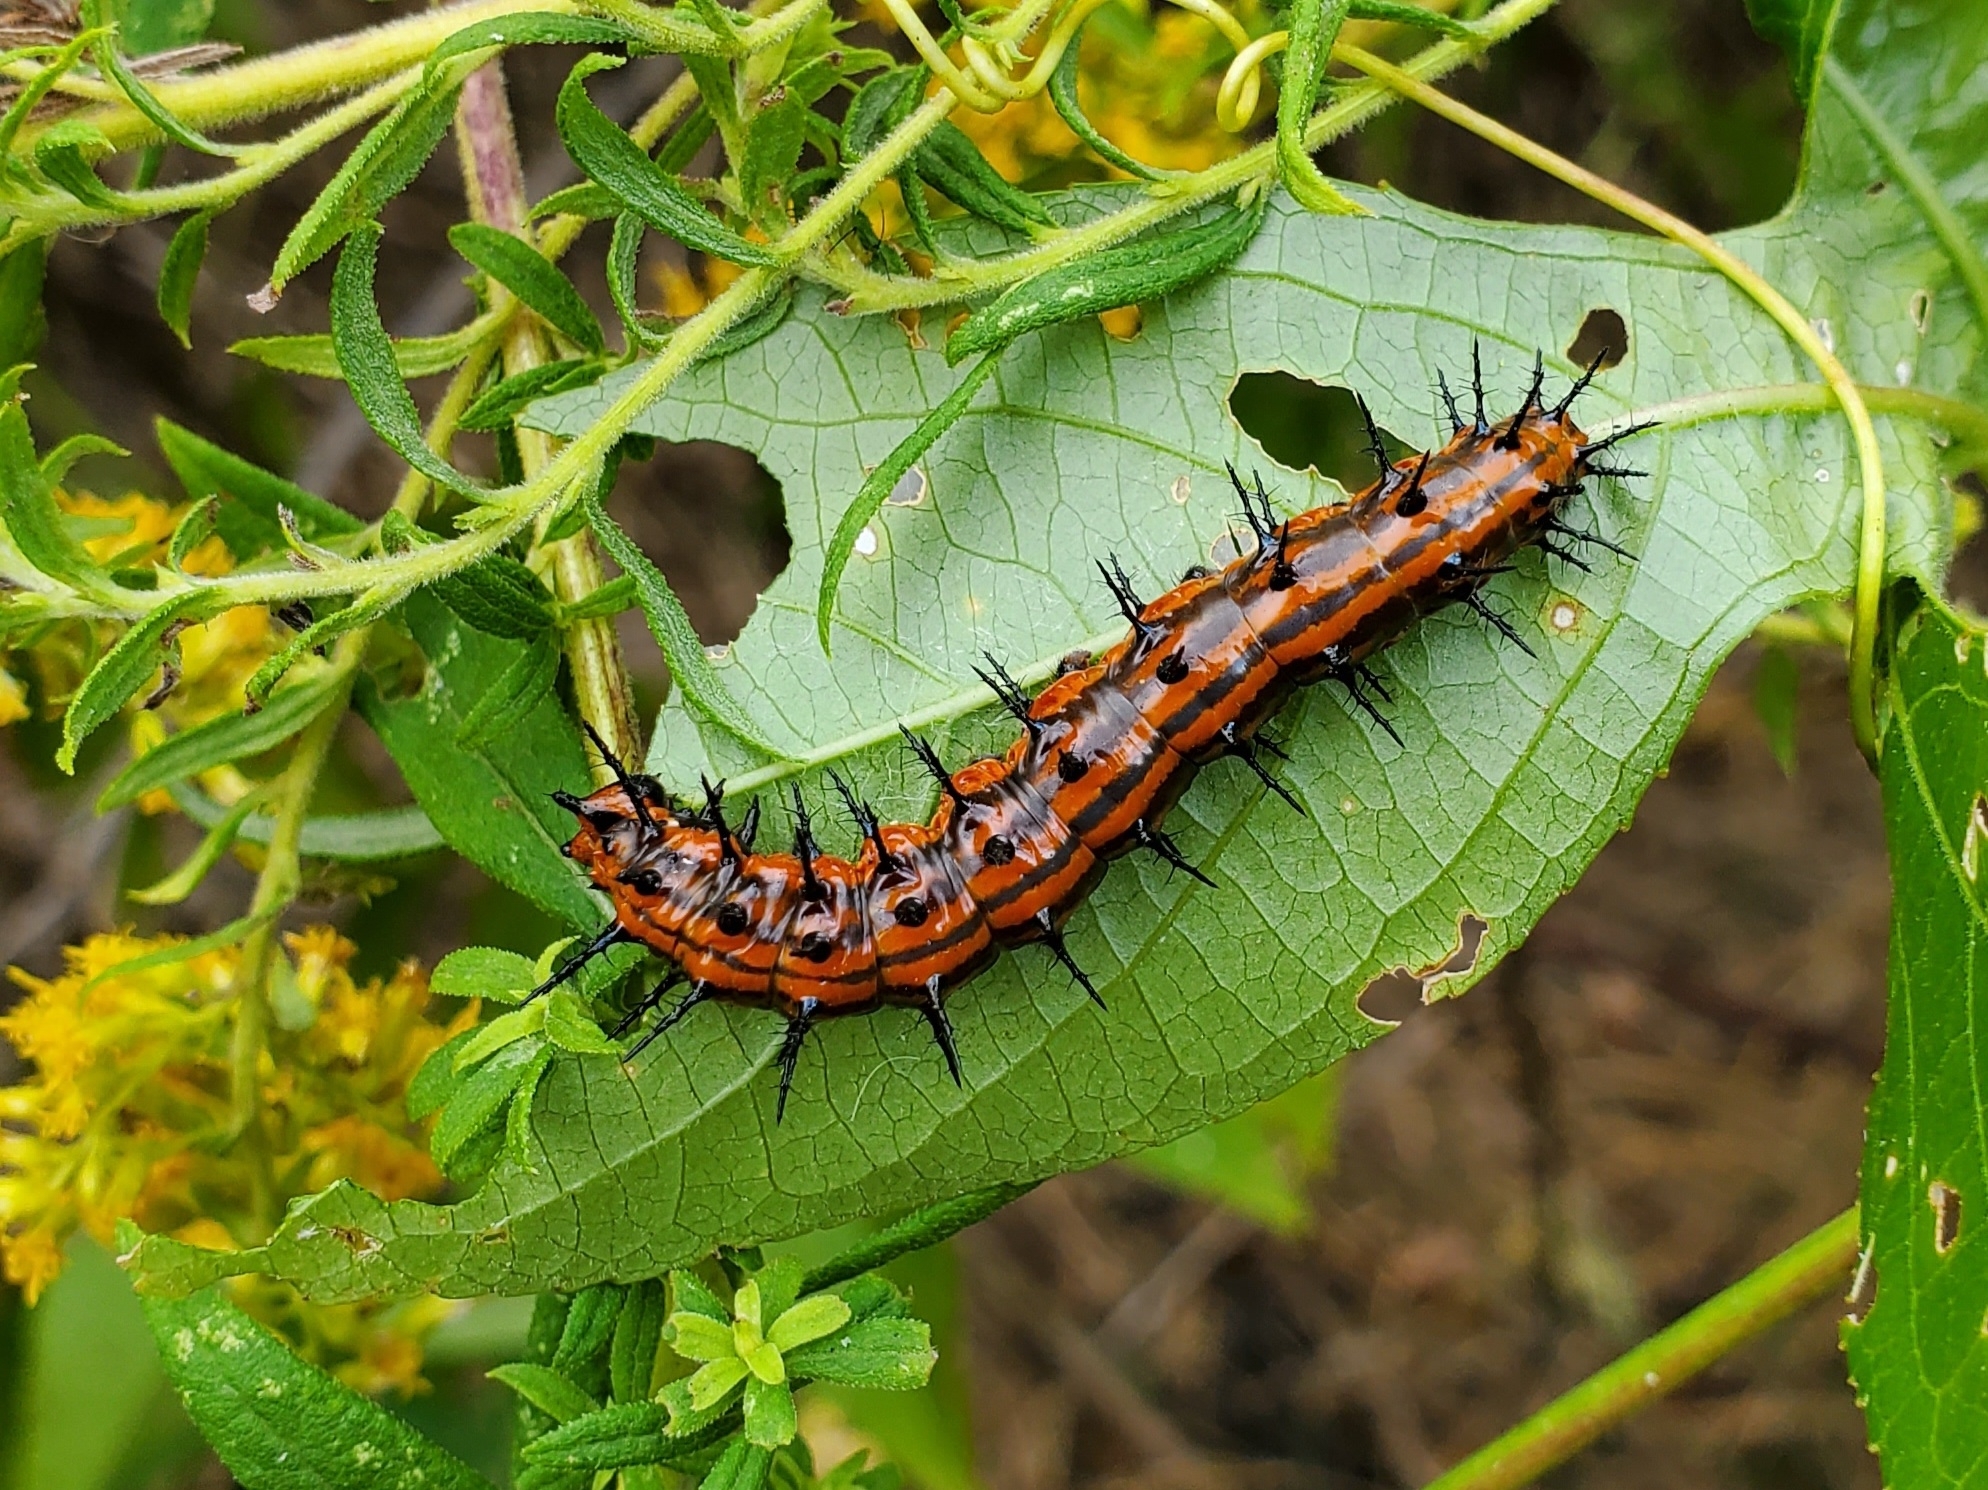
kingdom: Animalia
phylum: Arthropoda
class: Insecta
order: Lepidoptera
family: Nymphalidae
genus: Dione
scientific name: Dione vanillae
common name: Gulf fritillary
